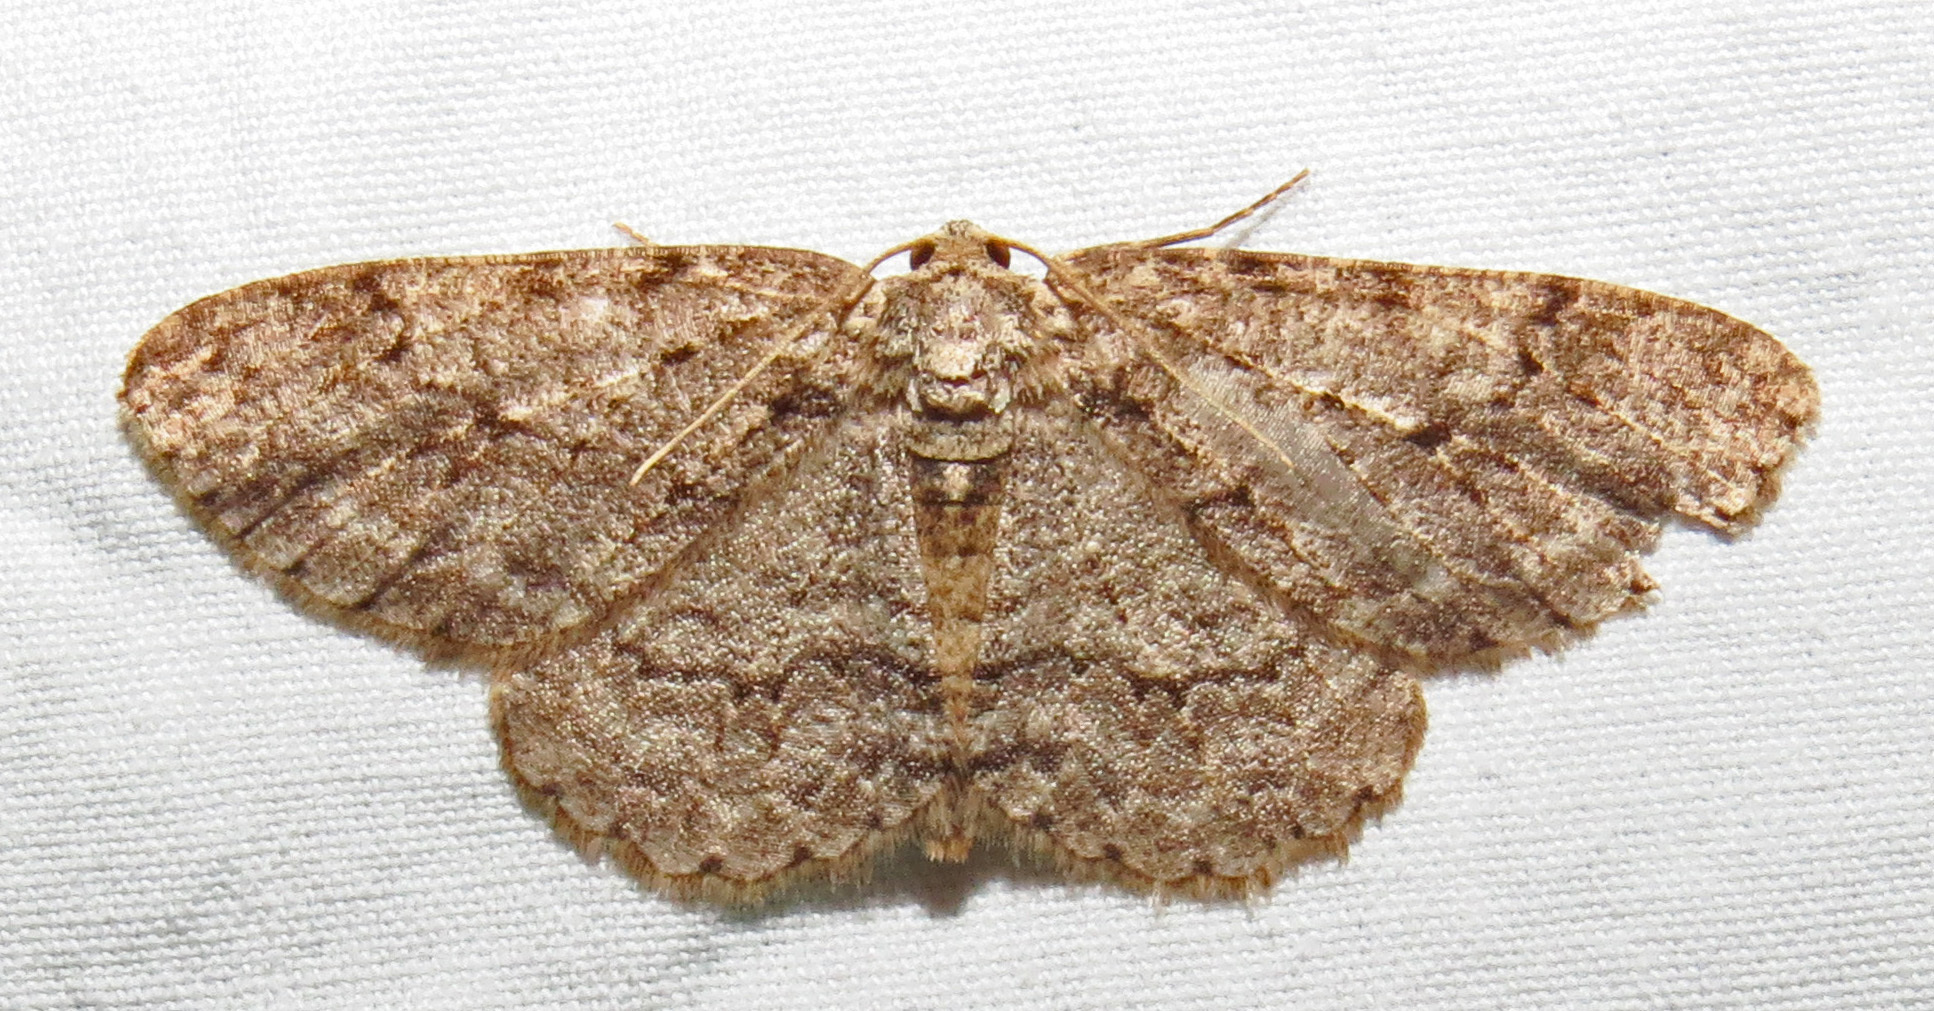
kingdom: Animalia
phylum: Arthropoda
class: Insecta
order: Lepidoptera
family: Geometridae
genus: Ectropis
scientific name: Ectropis crepuscularia
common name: Engrailed
